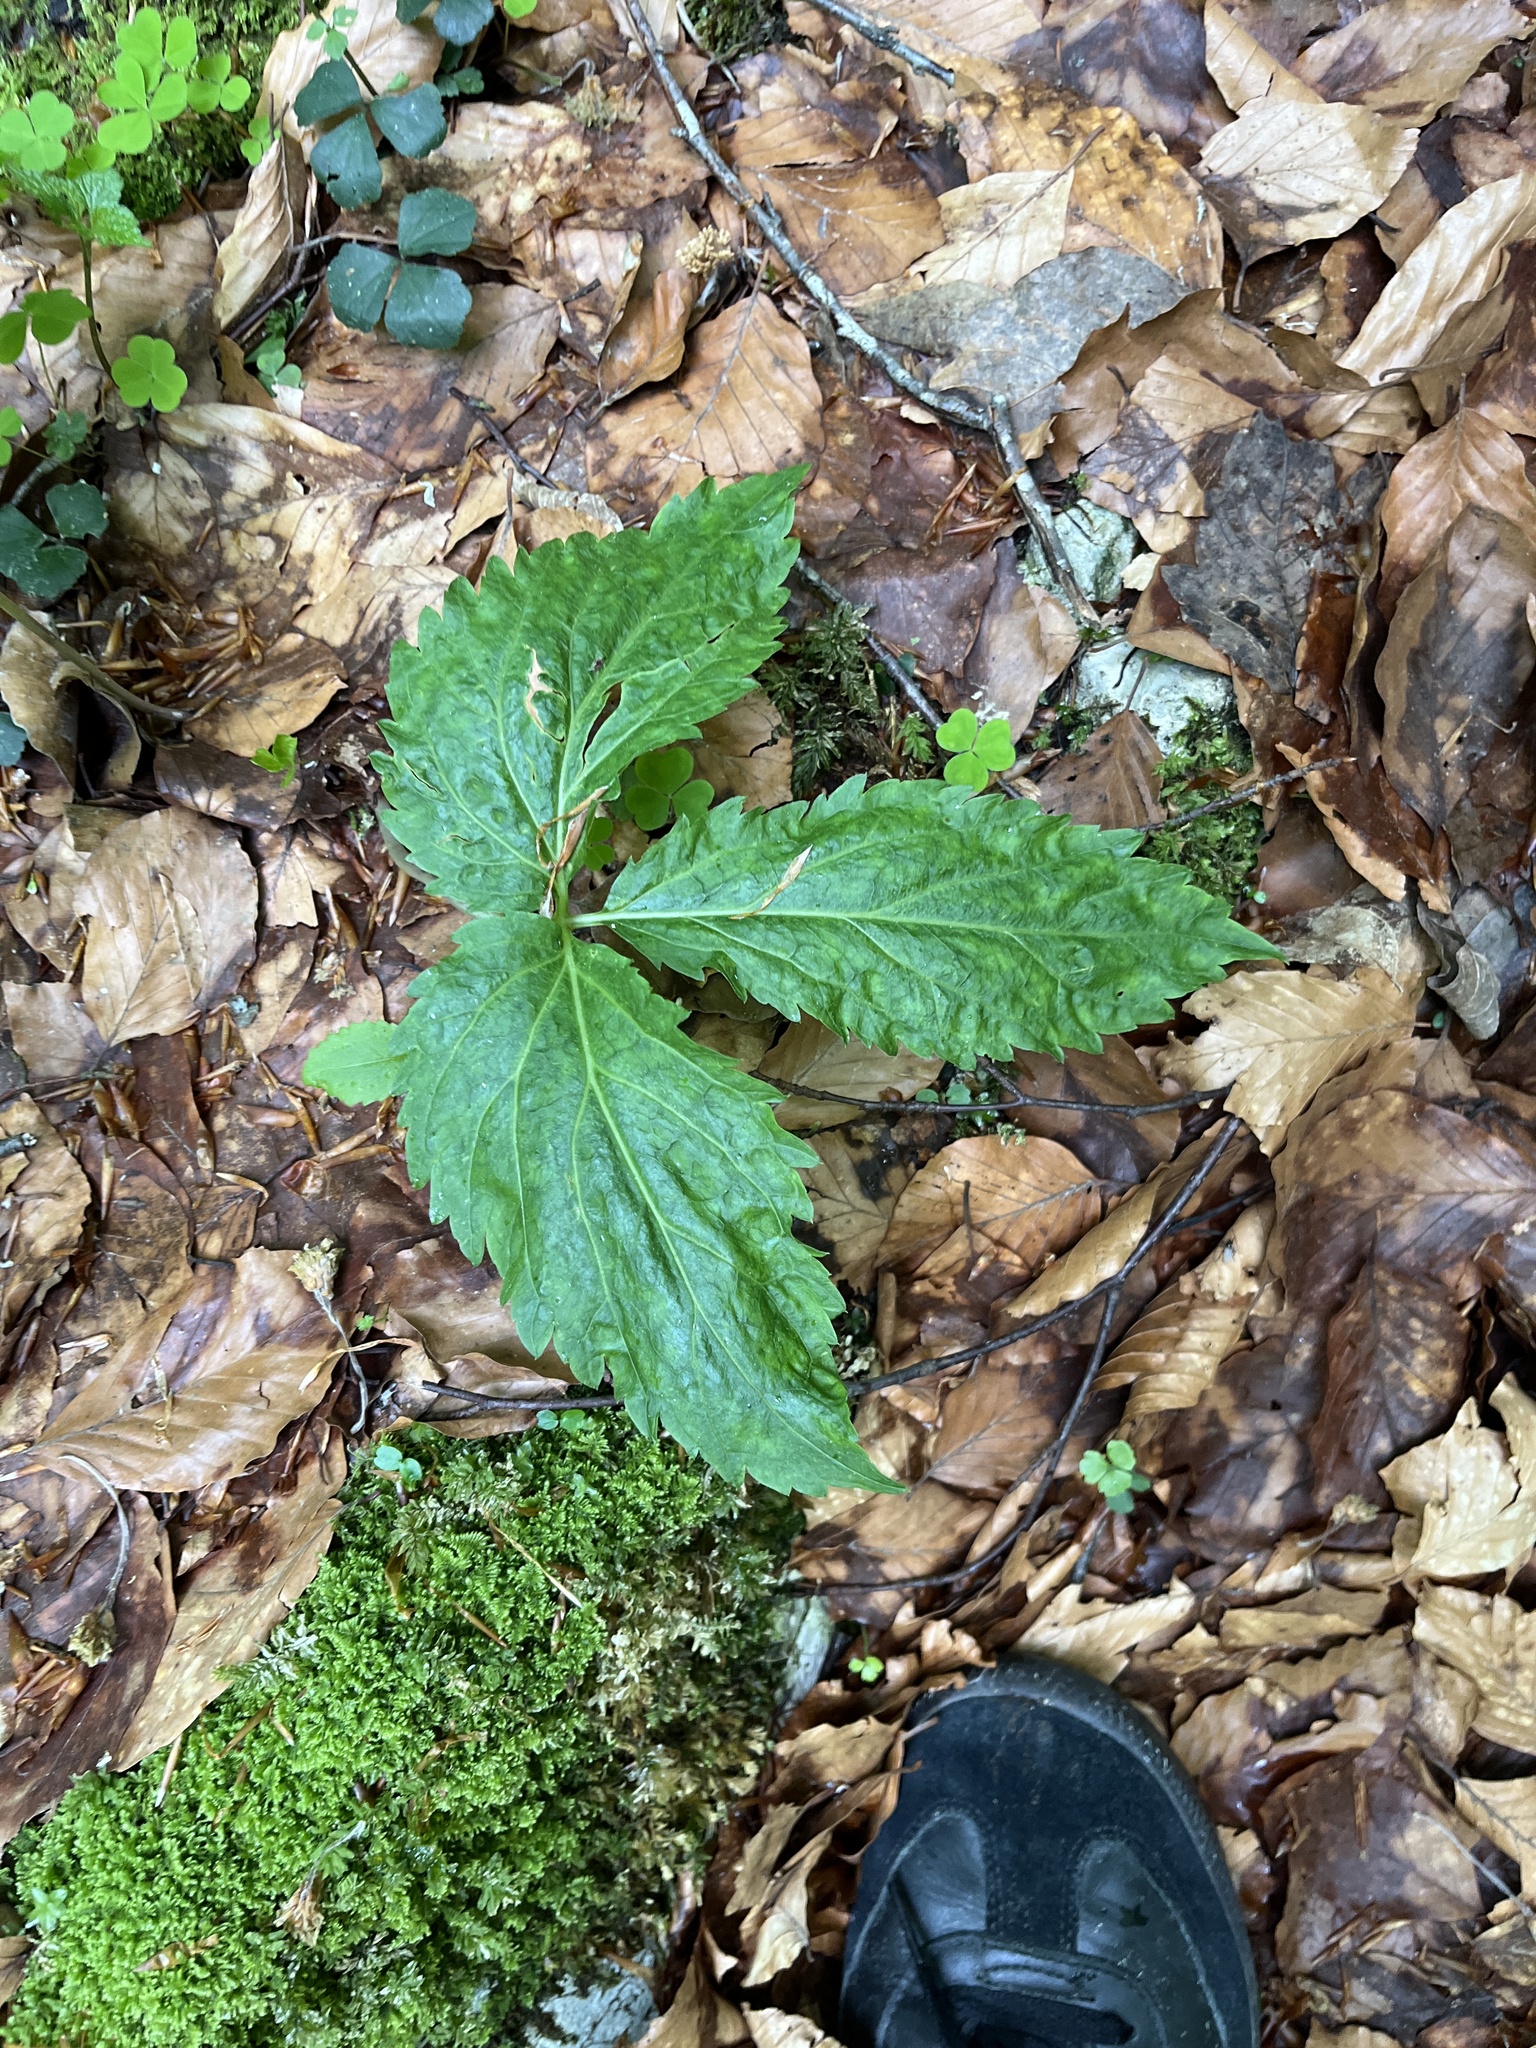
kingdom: Plantae
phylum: Tracheophyta
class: Magnoliopsida
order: Brassicales
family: Brassicaceae
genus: Cardamine
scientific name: Cardamine enneaphyllos
